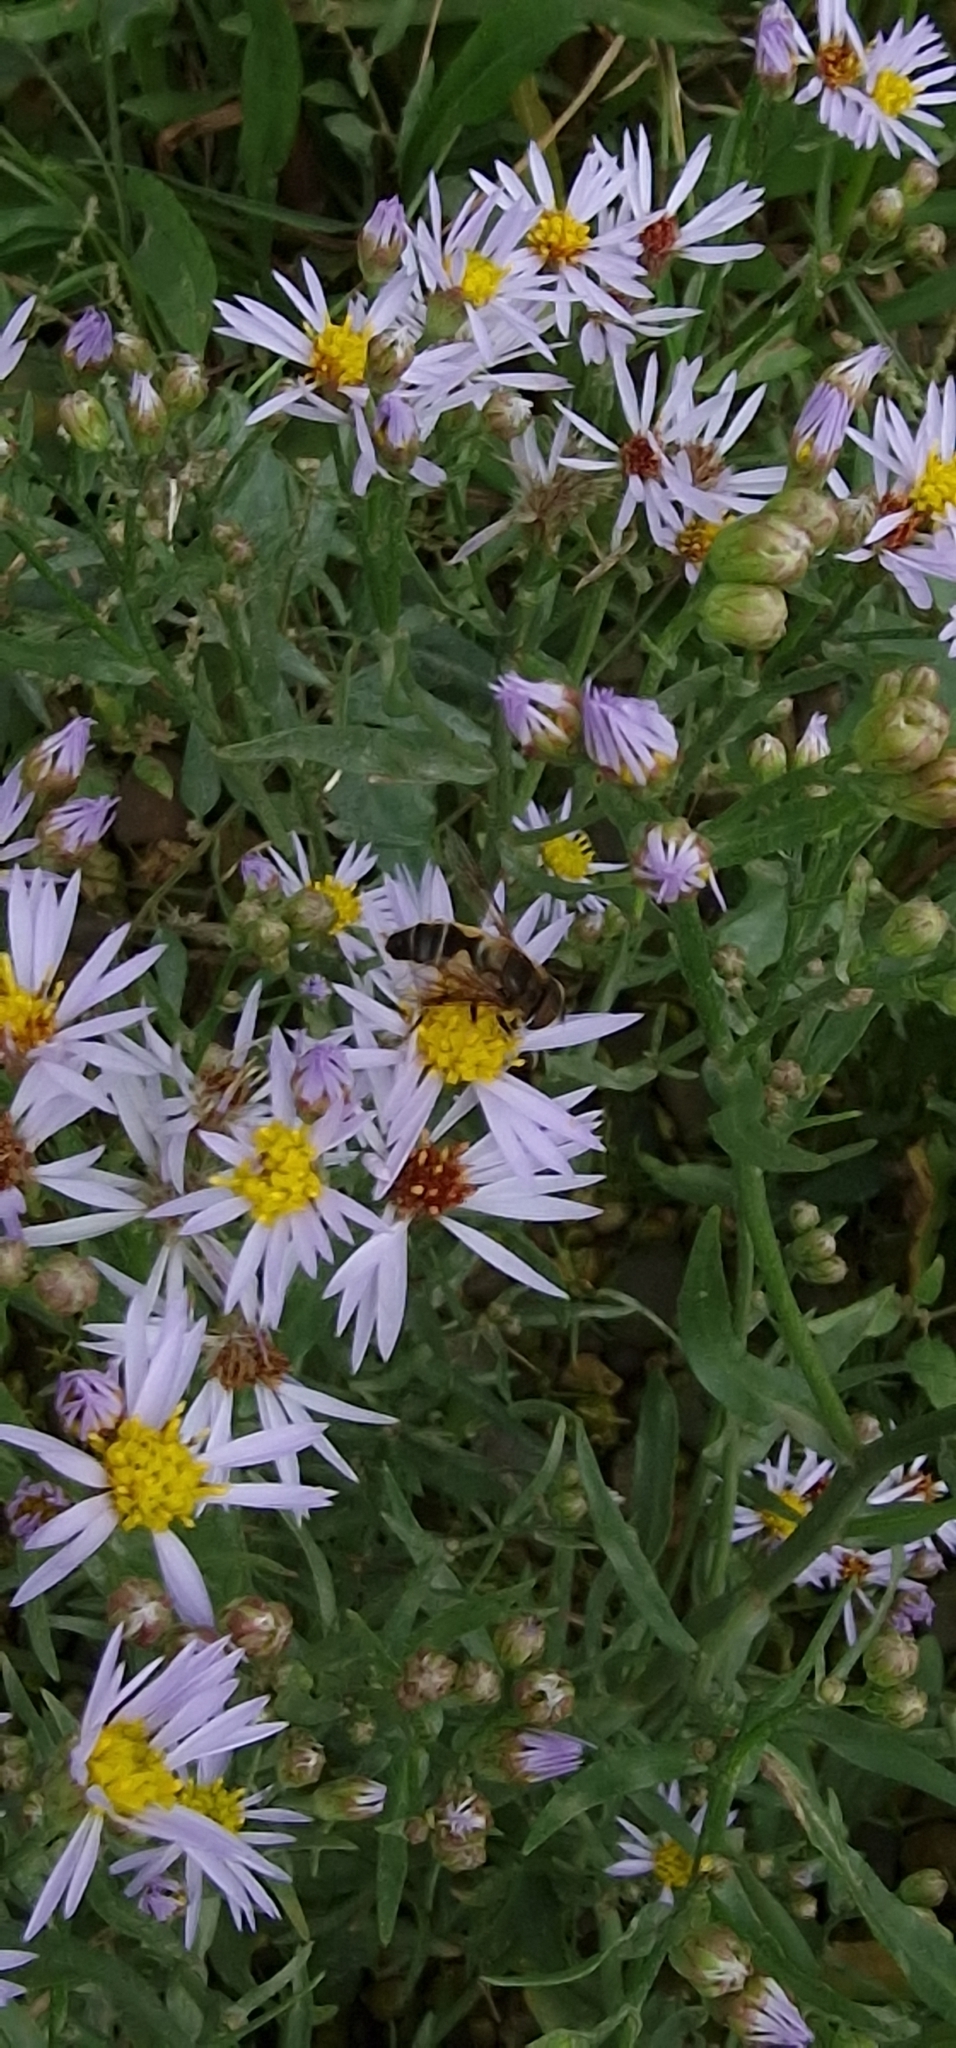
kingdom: Animalia
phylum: Arthropoda
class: Insecta
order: Diptera
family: Syrphidae
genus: Eoseristalis
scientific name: Eoseristalis
